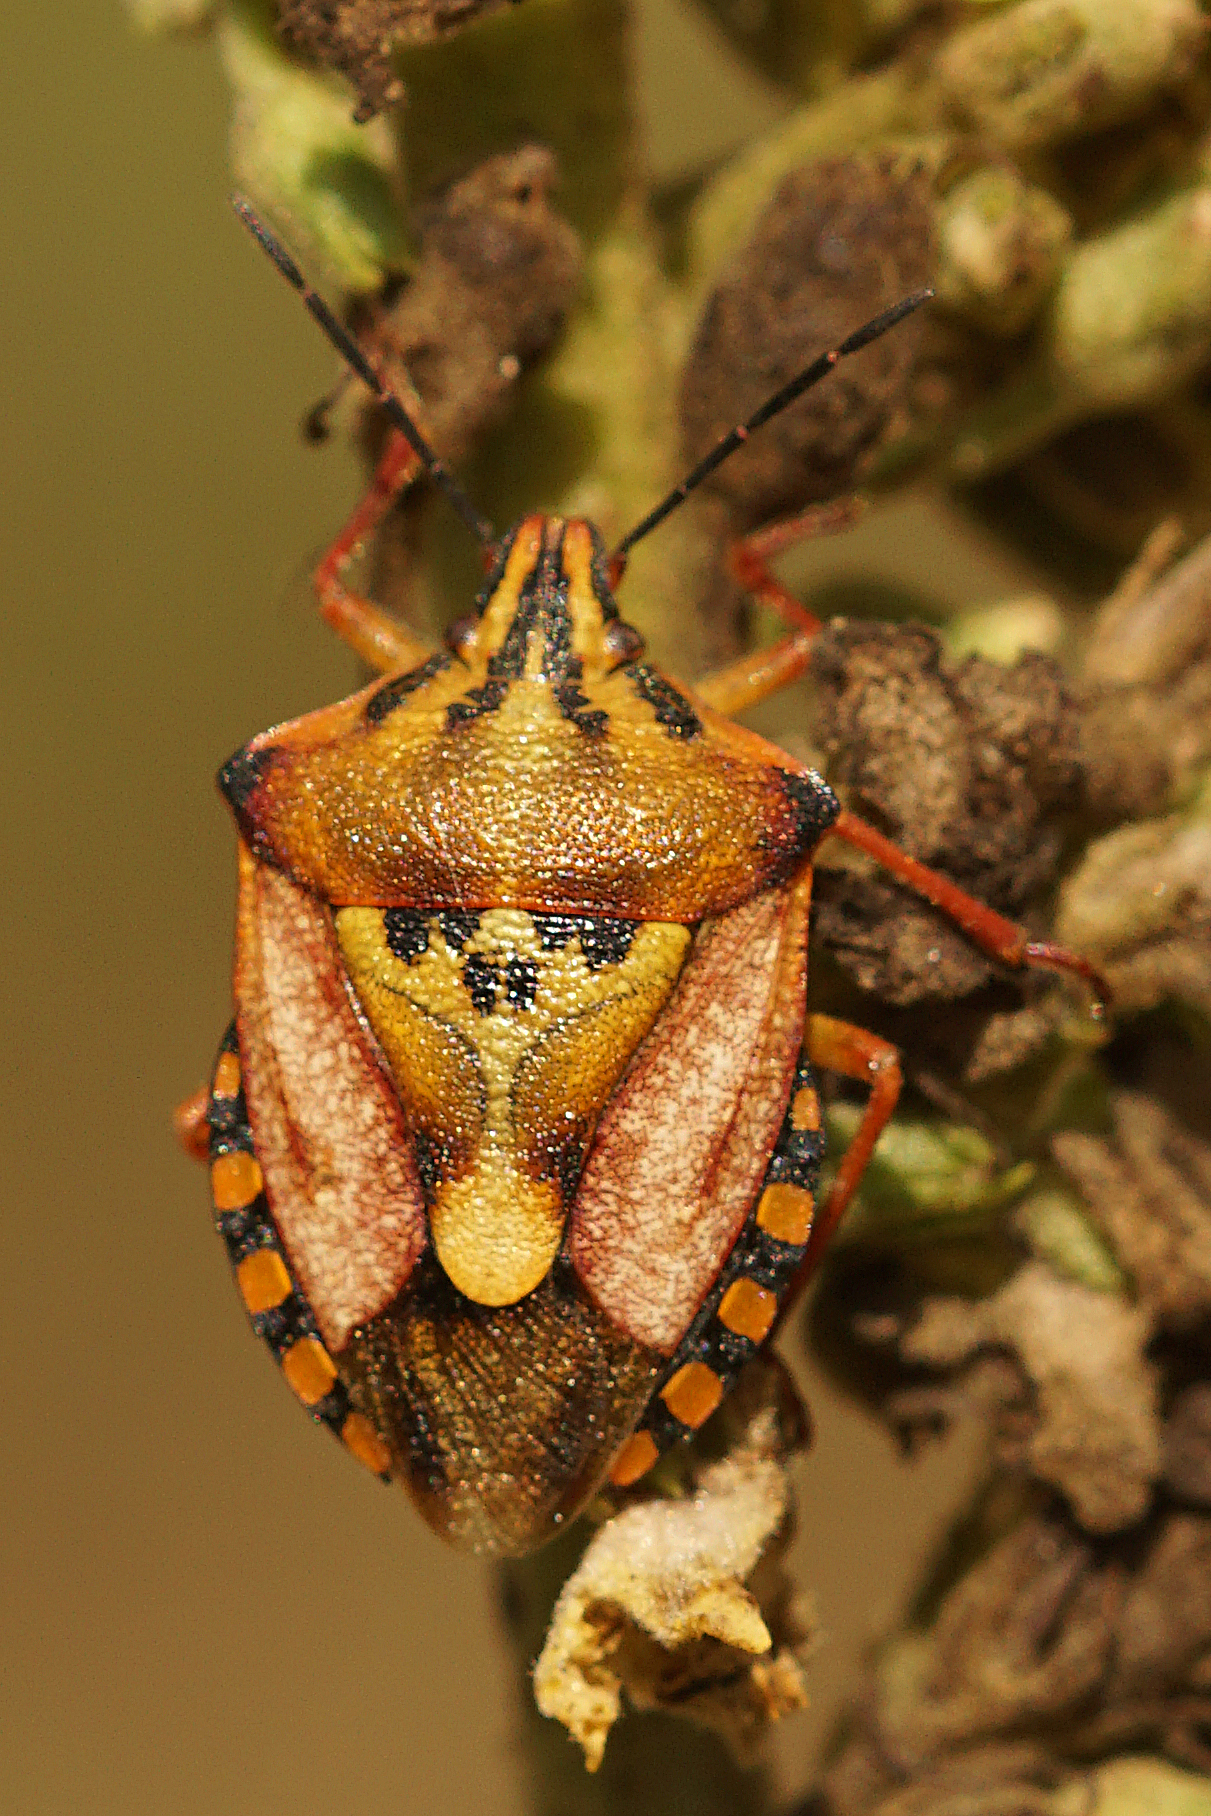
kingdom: Animalia
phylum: Arthropoda
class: Insecta
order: Hemiptera
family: Pentatomidae
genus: Carpocoris
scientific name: Carpocoris mediterraneus
